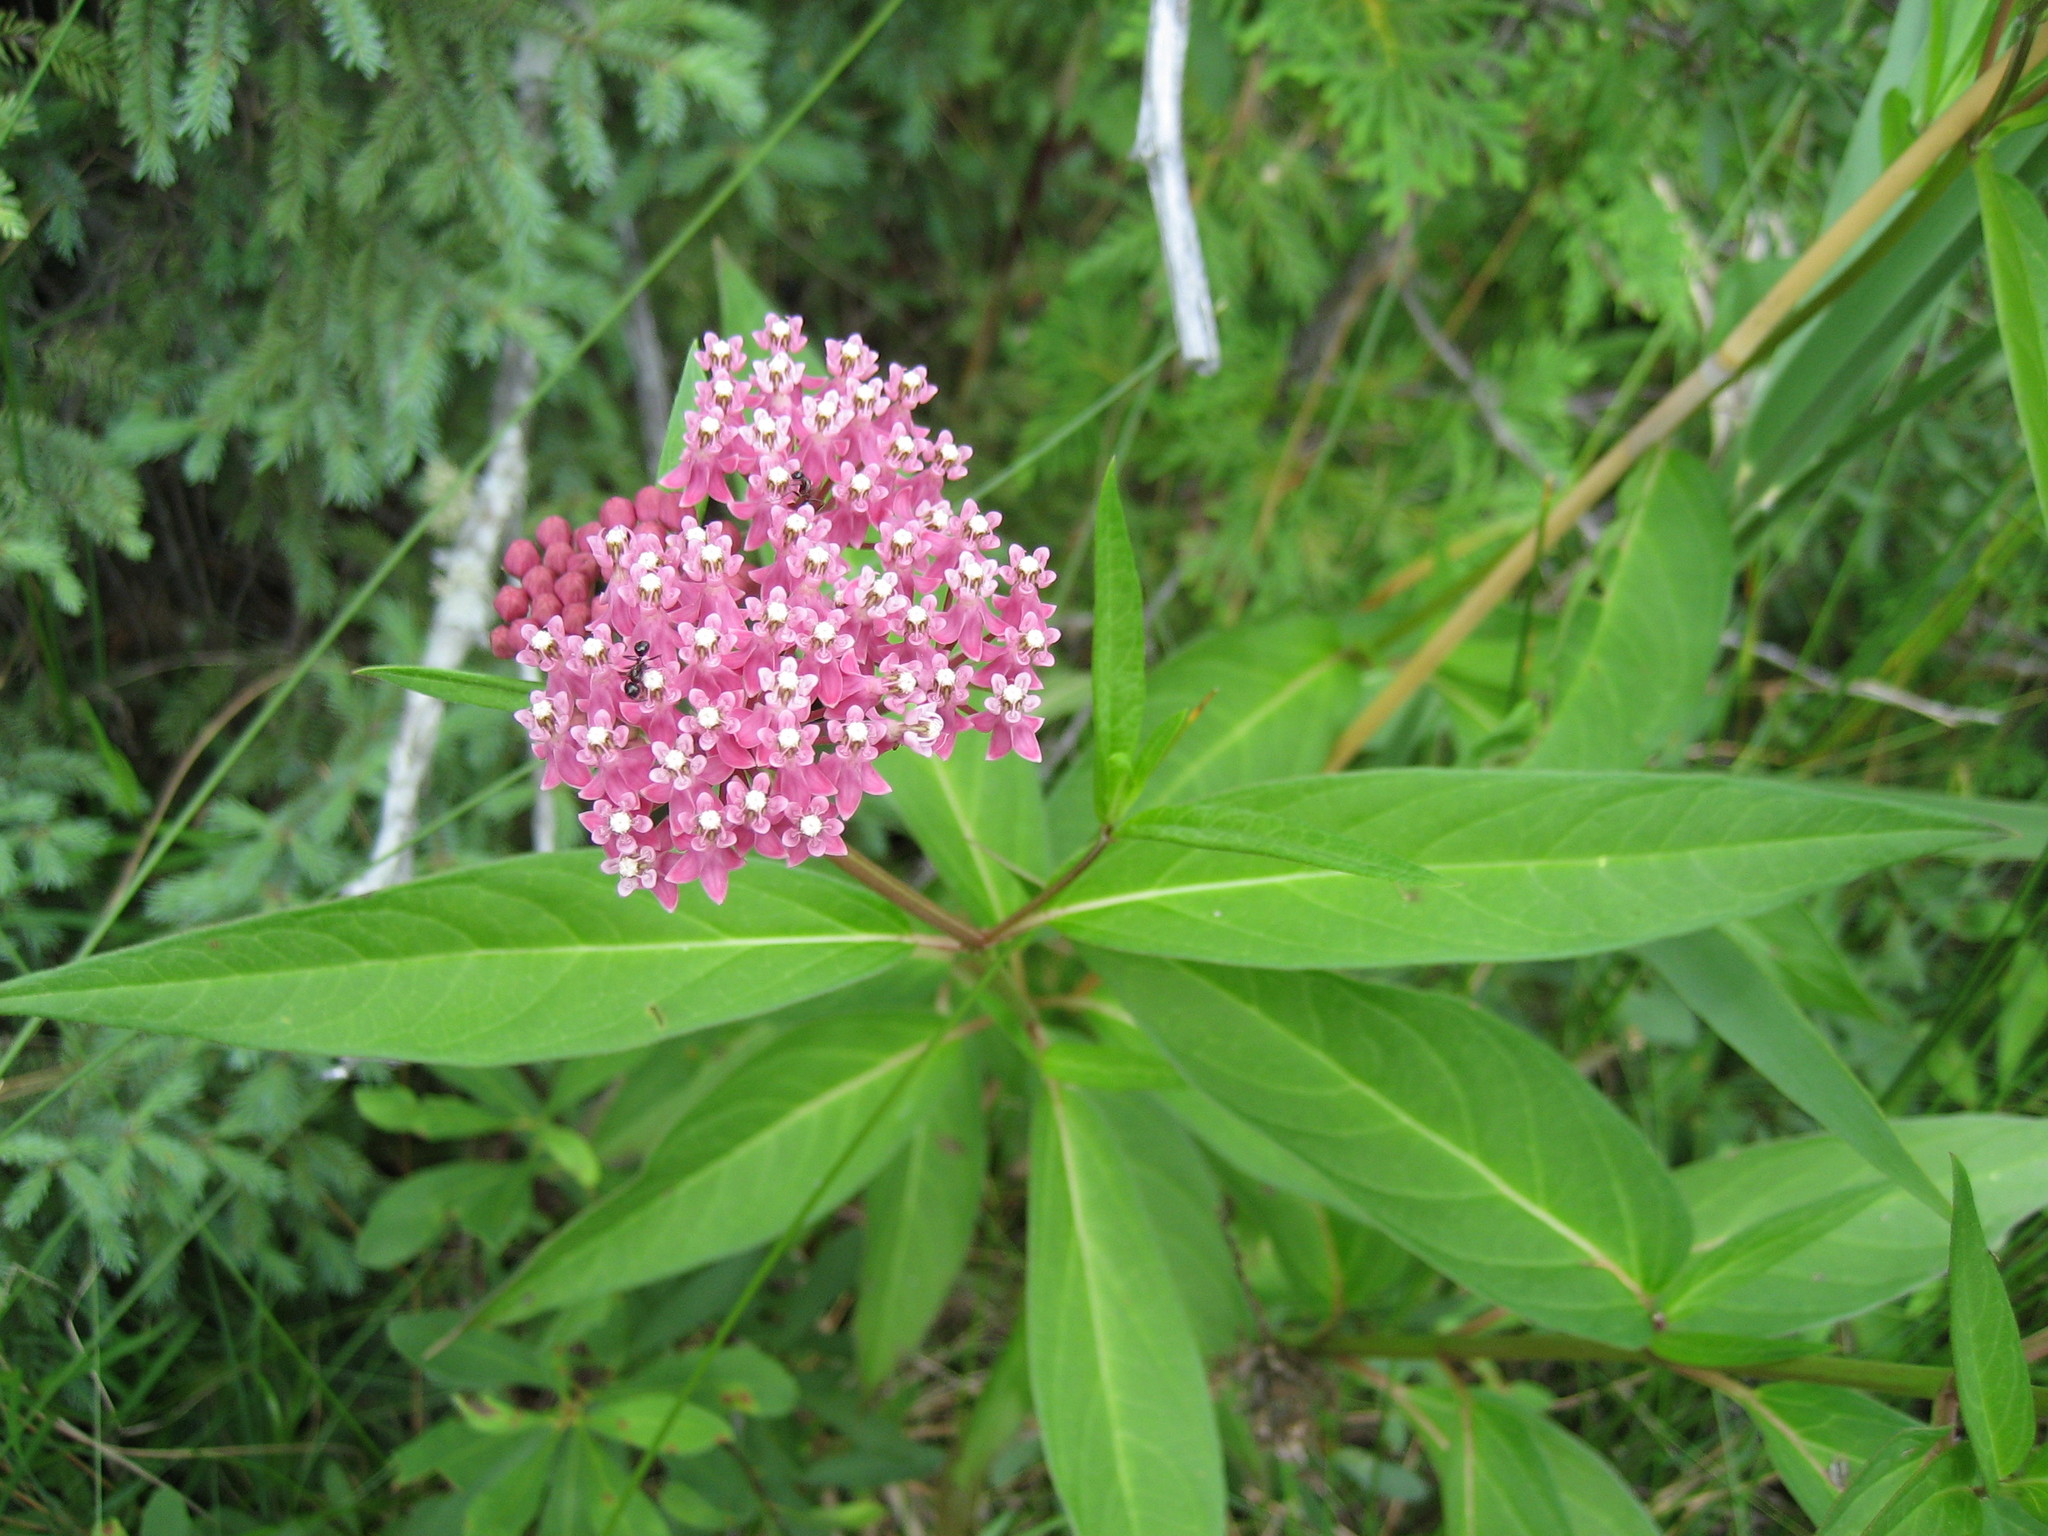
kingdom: Plantae
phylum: Tracheophyta
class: Magnoliopsida
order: Gentianales
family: Apocynaceae
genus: Asclepias
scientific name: Asclepias incarnata
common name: Swamp milkweed
